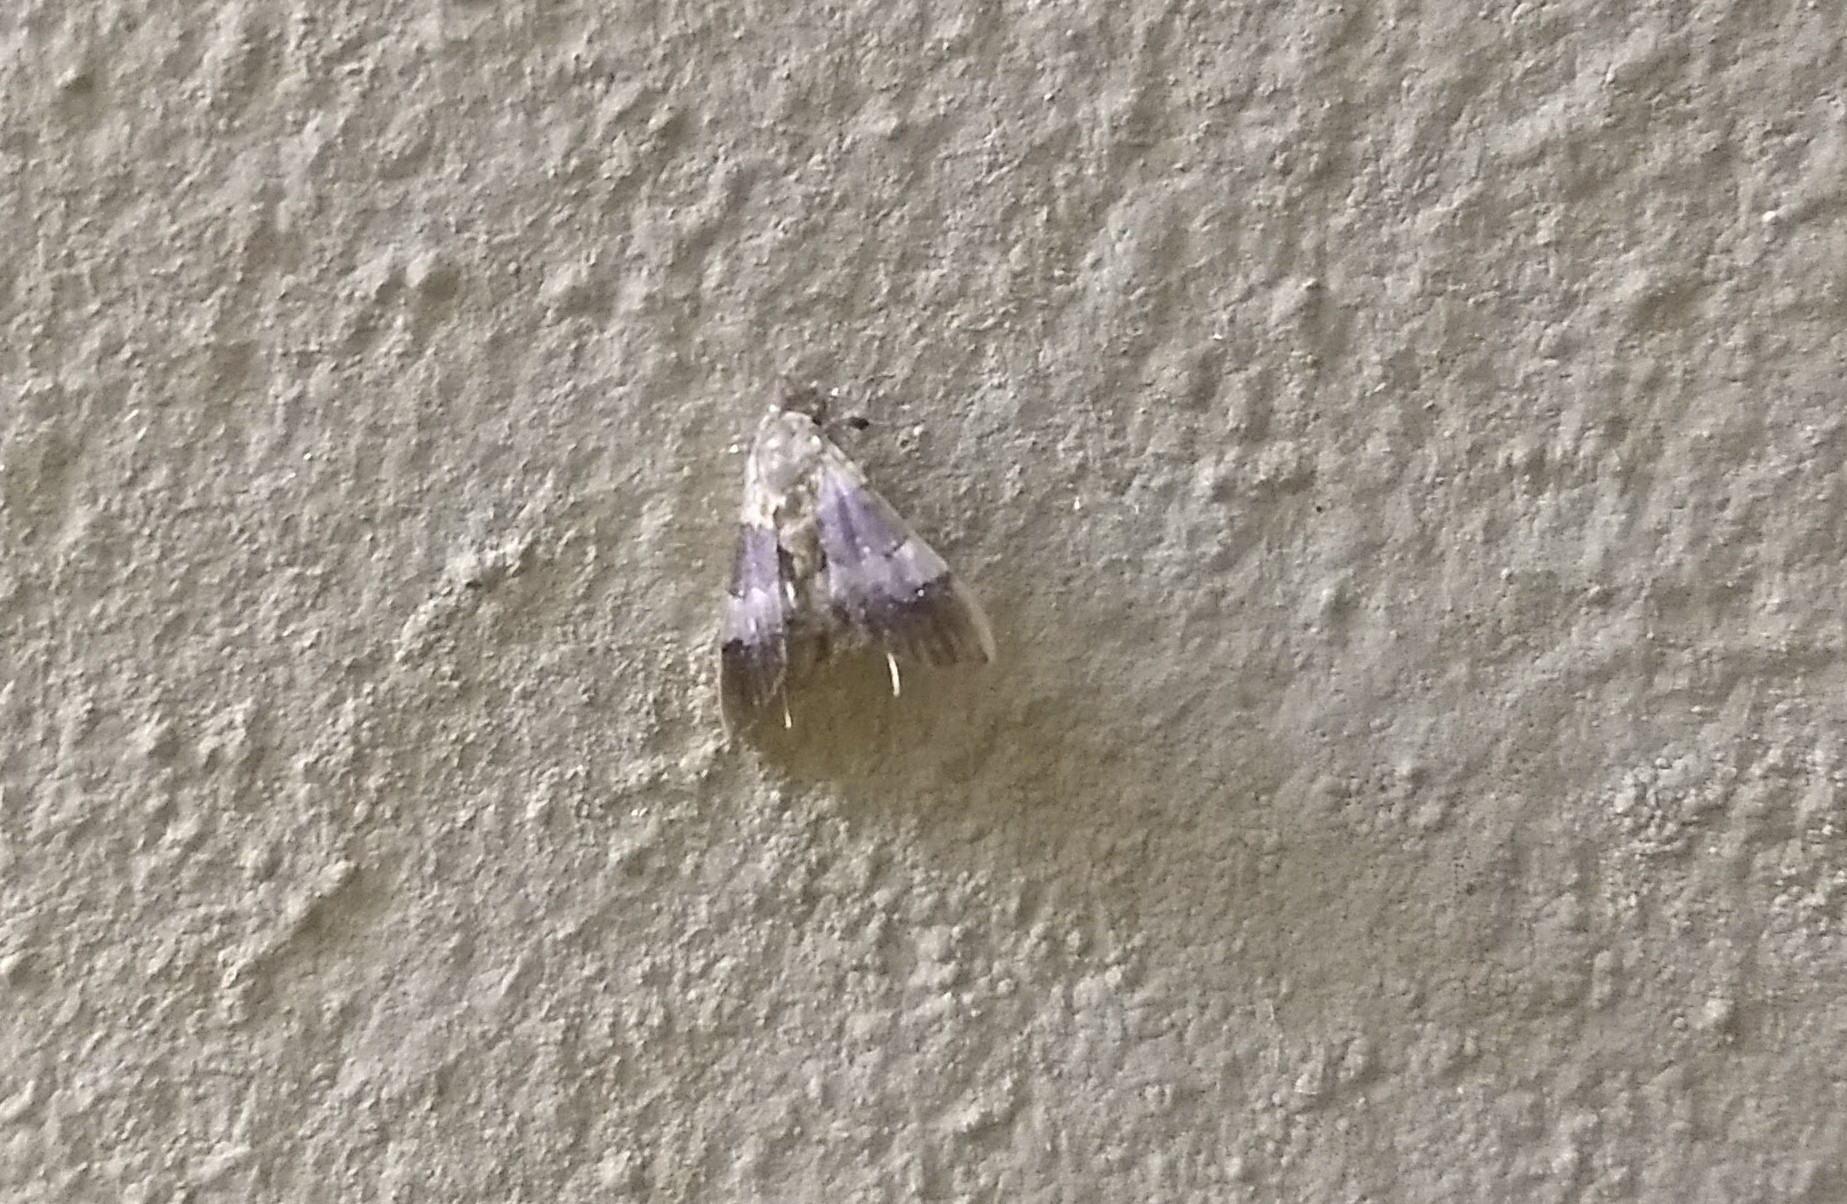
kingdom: Animalia
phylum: Arthropoda
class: Insecta
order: Lepidoptera
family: Crambidae
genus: Aetholix
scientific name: Aetholix flavibasalis
